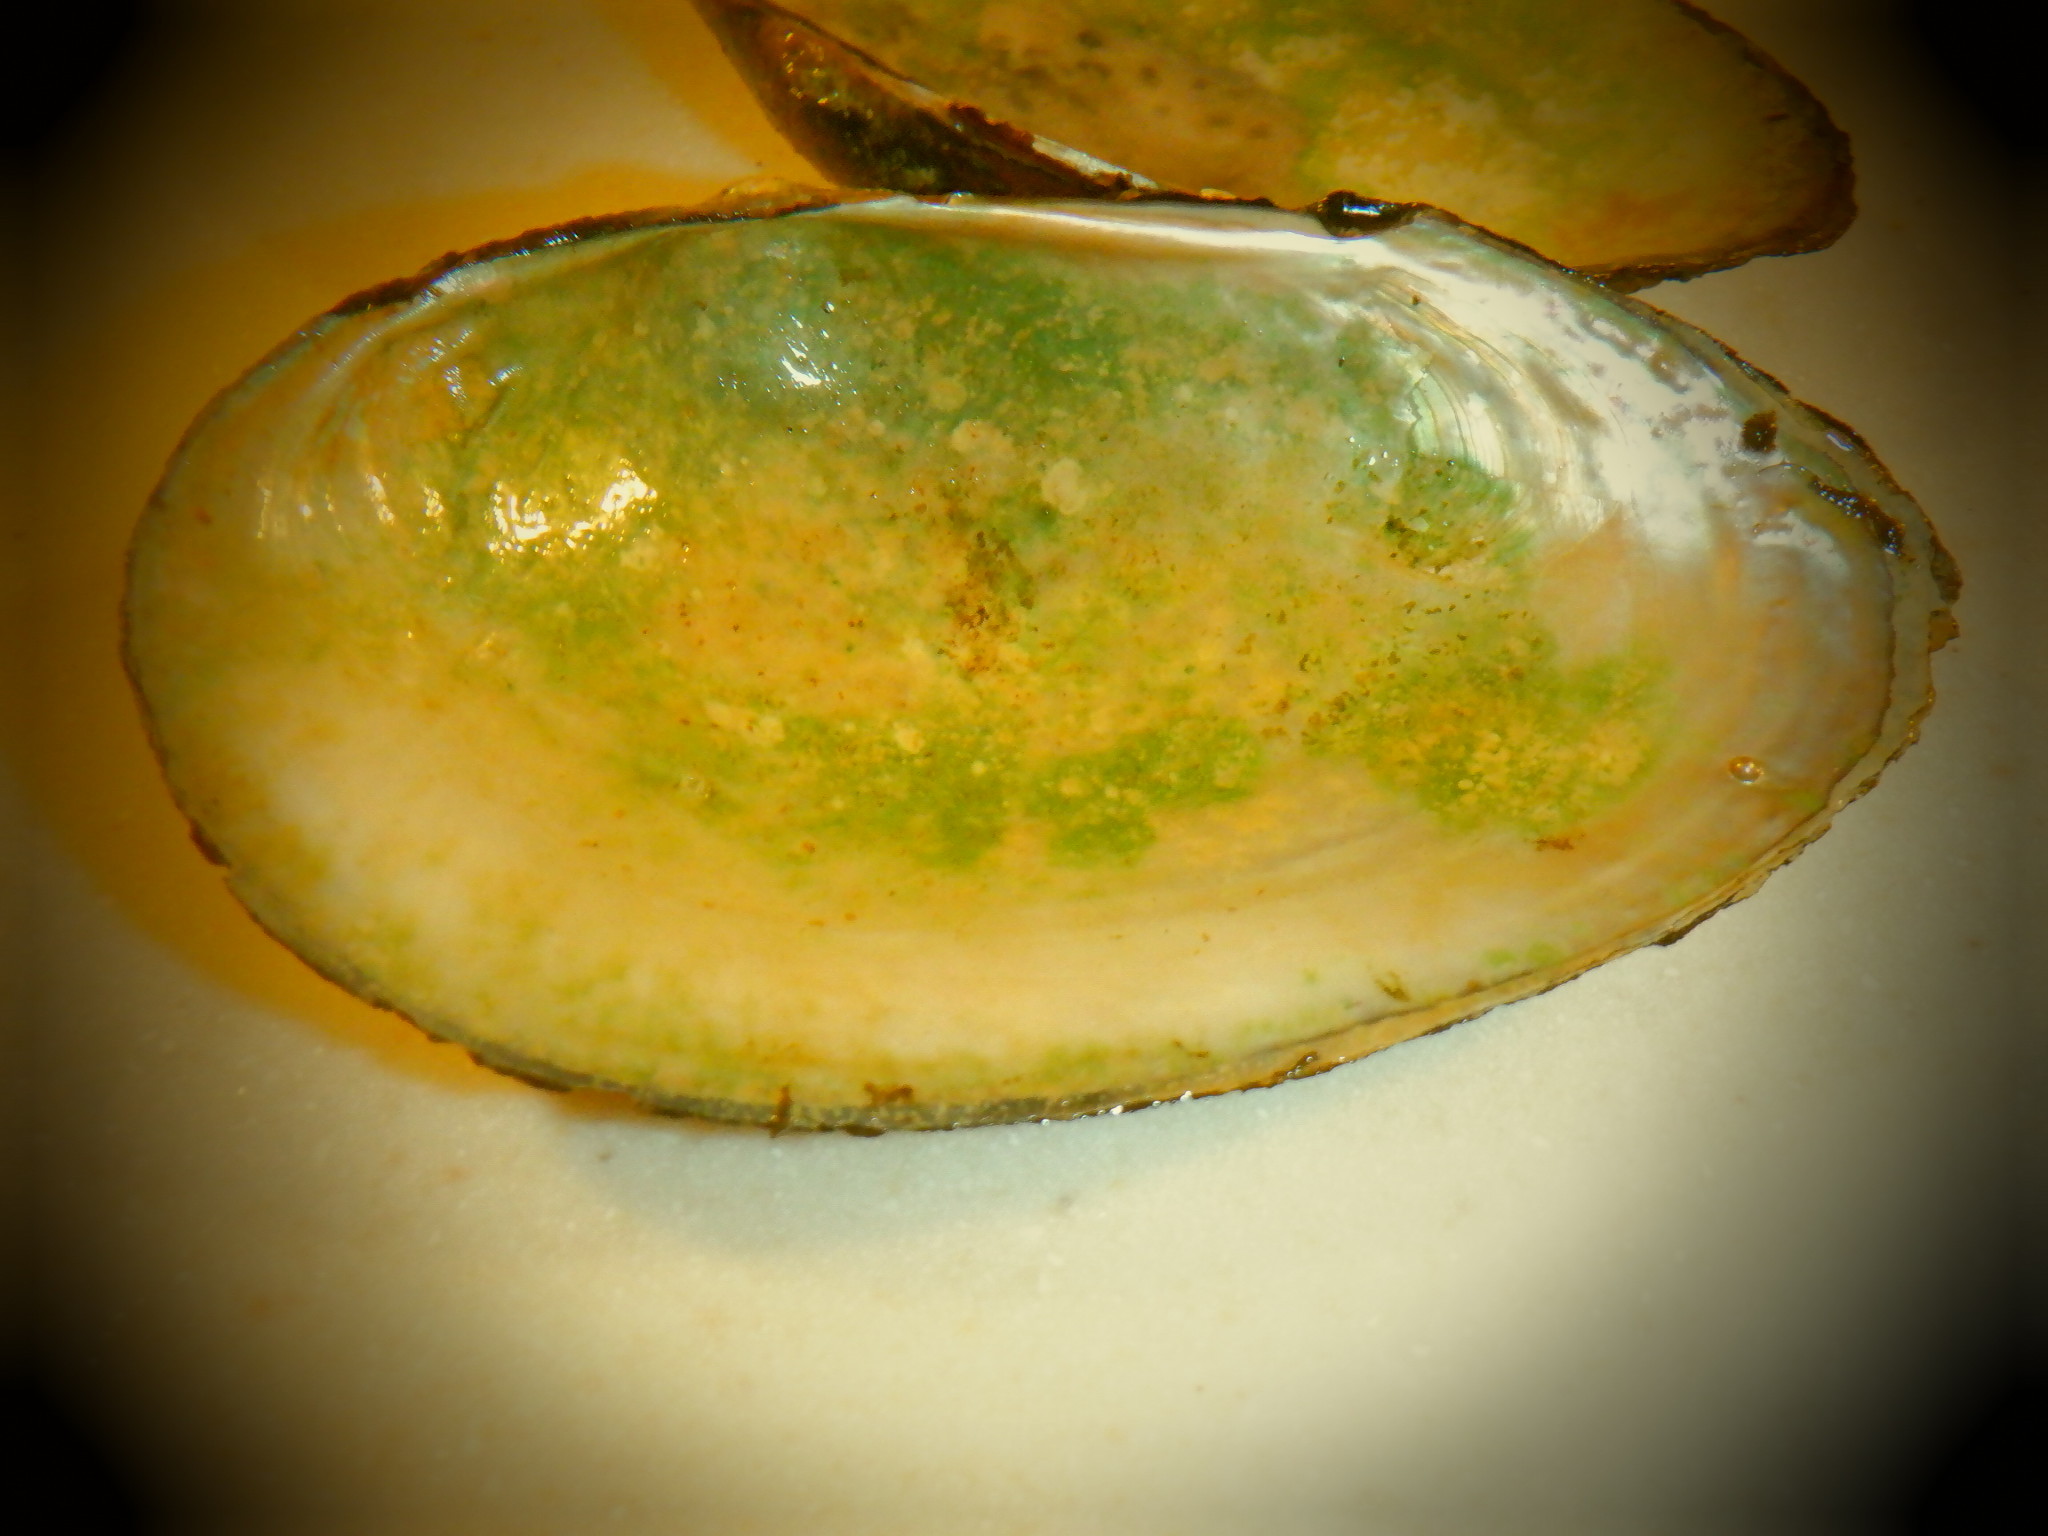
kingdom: Animalia
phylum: Mollusca
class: Bivalvia
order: Unionida
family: Unionidae
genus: Pyganodon
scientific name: Pyganodon grandis
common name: Giant floater
